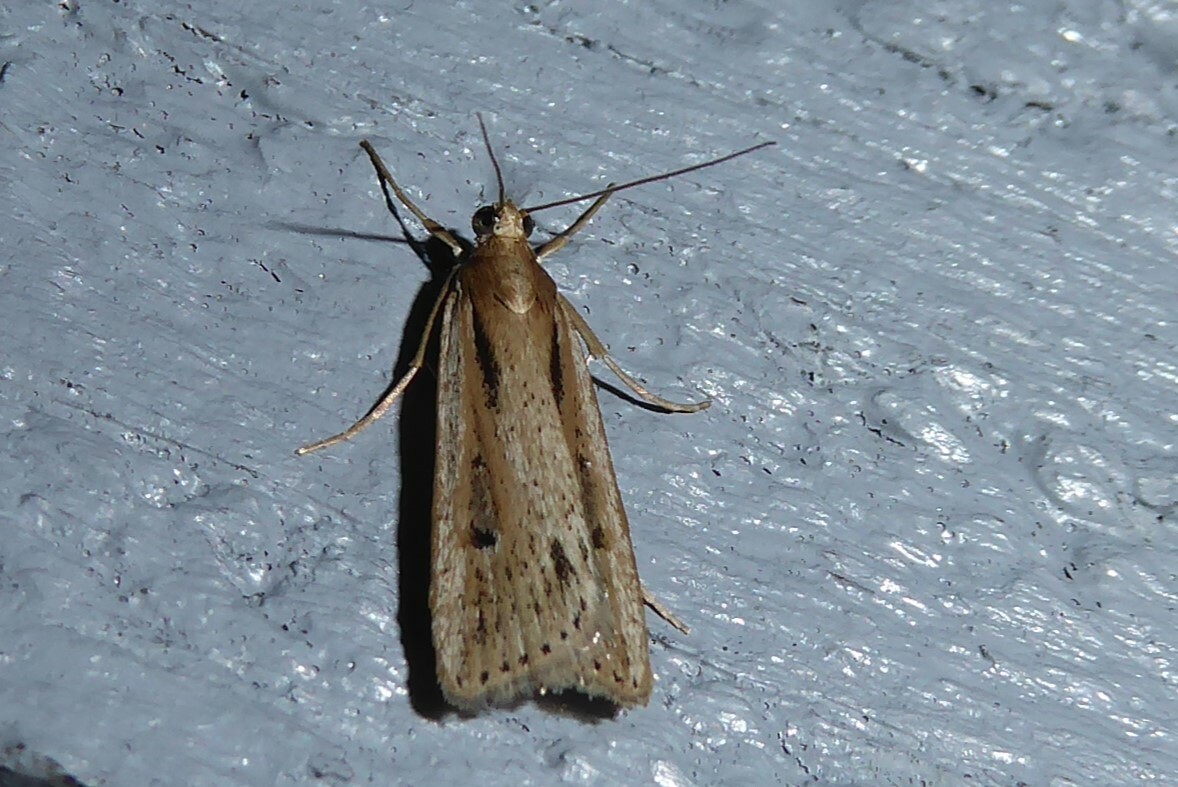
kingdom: Animalia
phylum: Arthropoda
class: Insecta
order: Lepidoptera
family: Crambidae
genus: Eudonia
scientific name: Eudonia sabulosella
